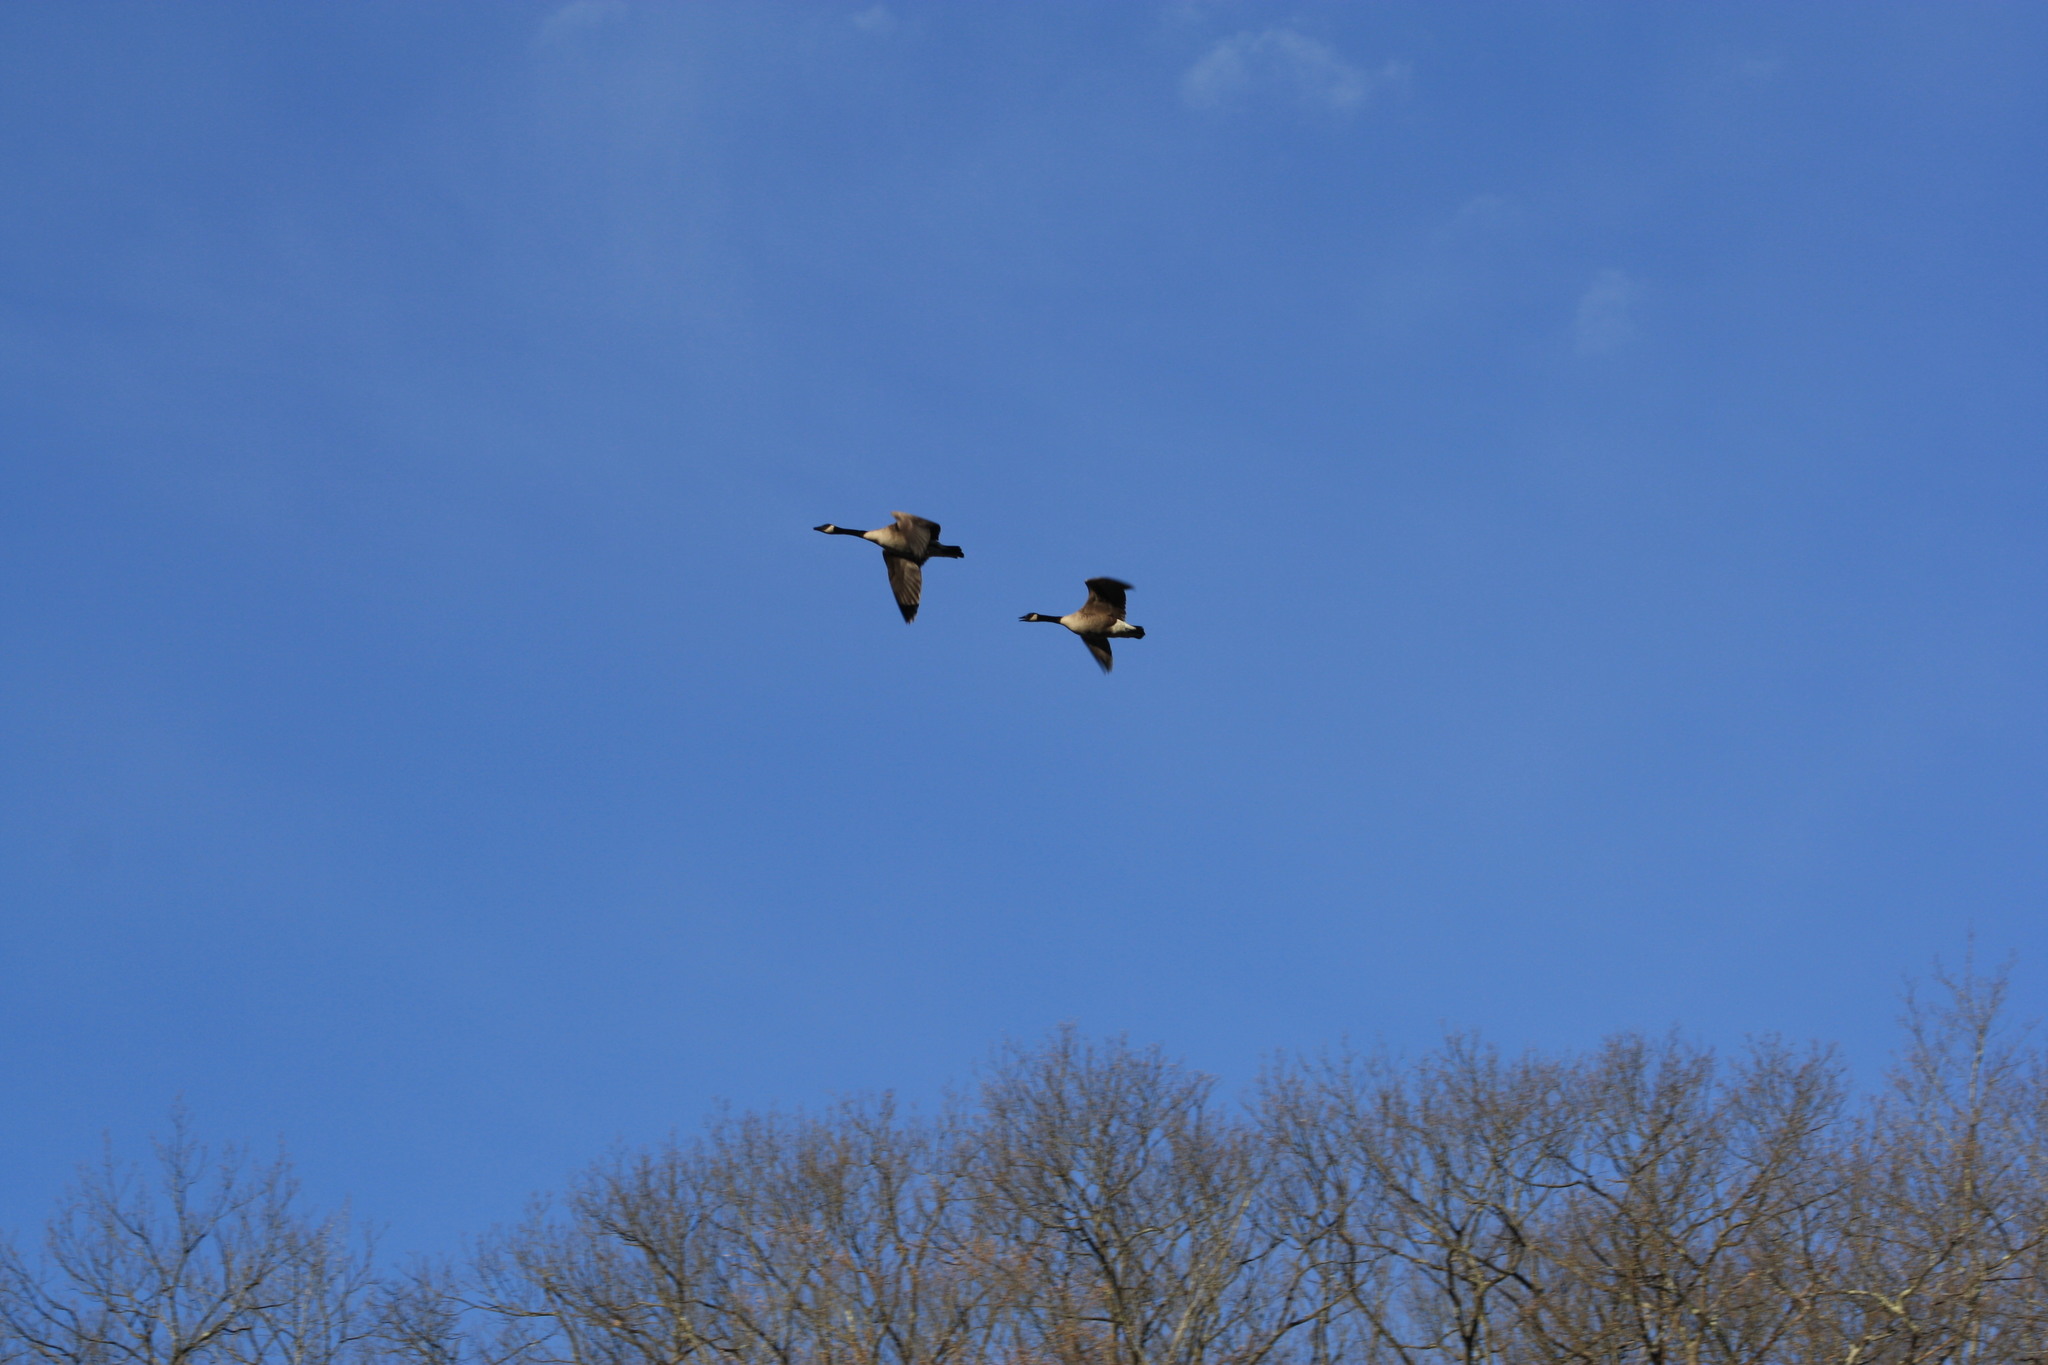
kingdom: Animalia
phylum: Chordata
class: Aves
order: Anseriformes
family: Anatidae
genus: Branta
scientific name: Branta canadensis
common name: Canada goose
